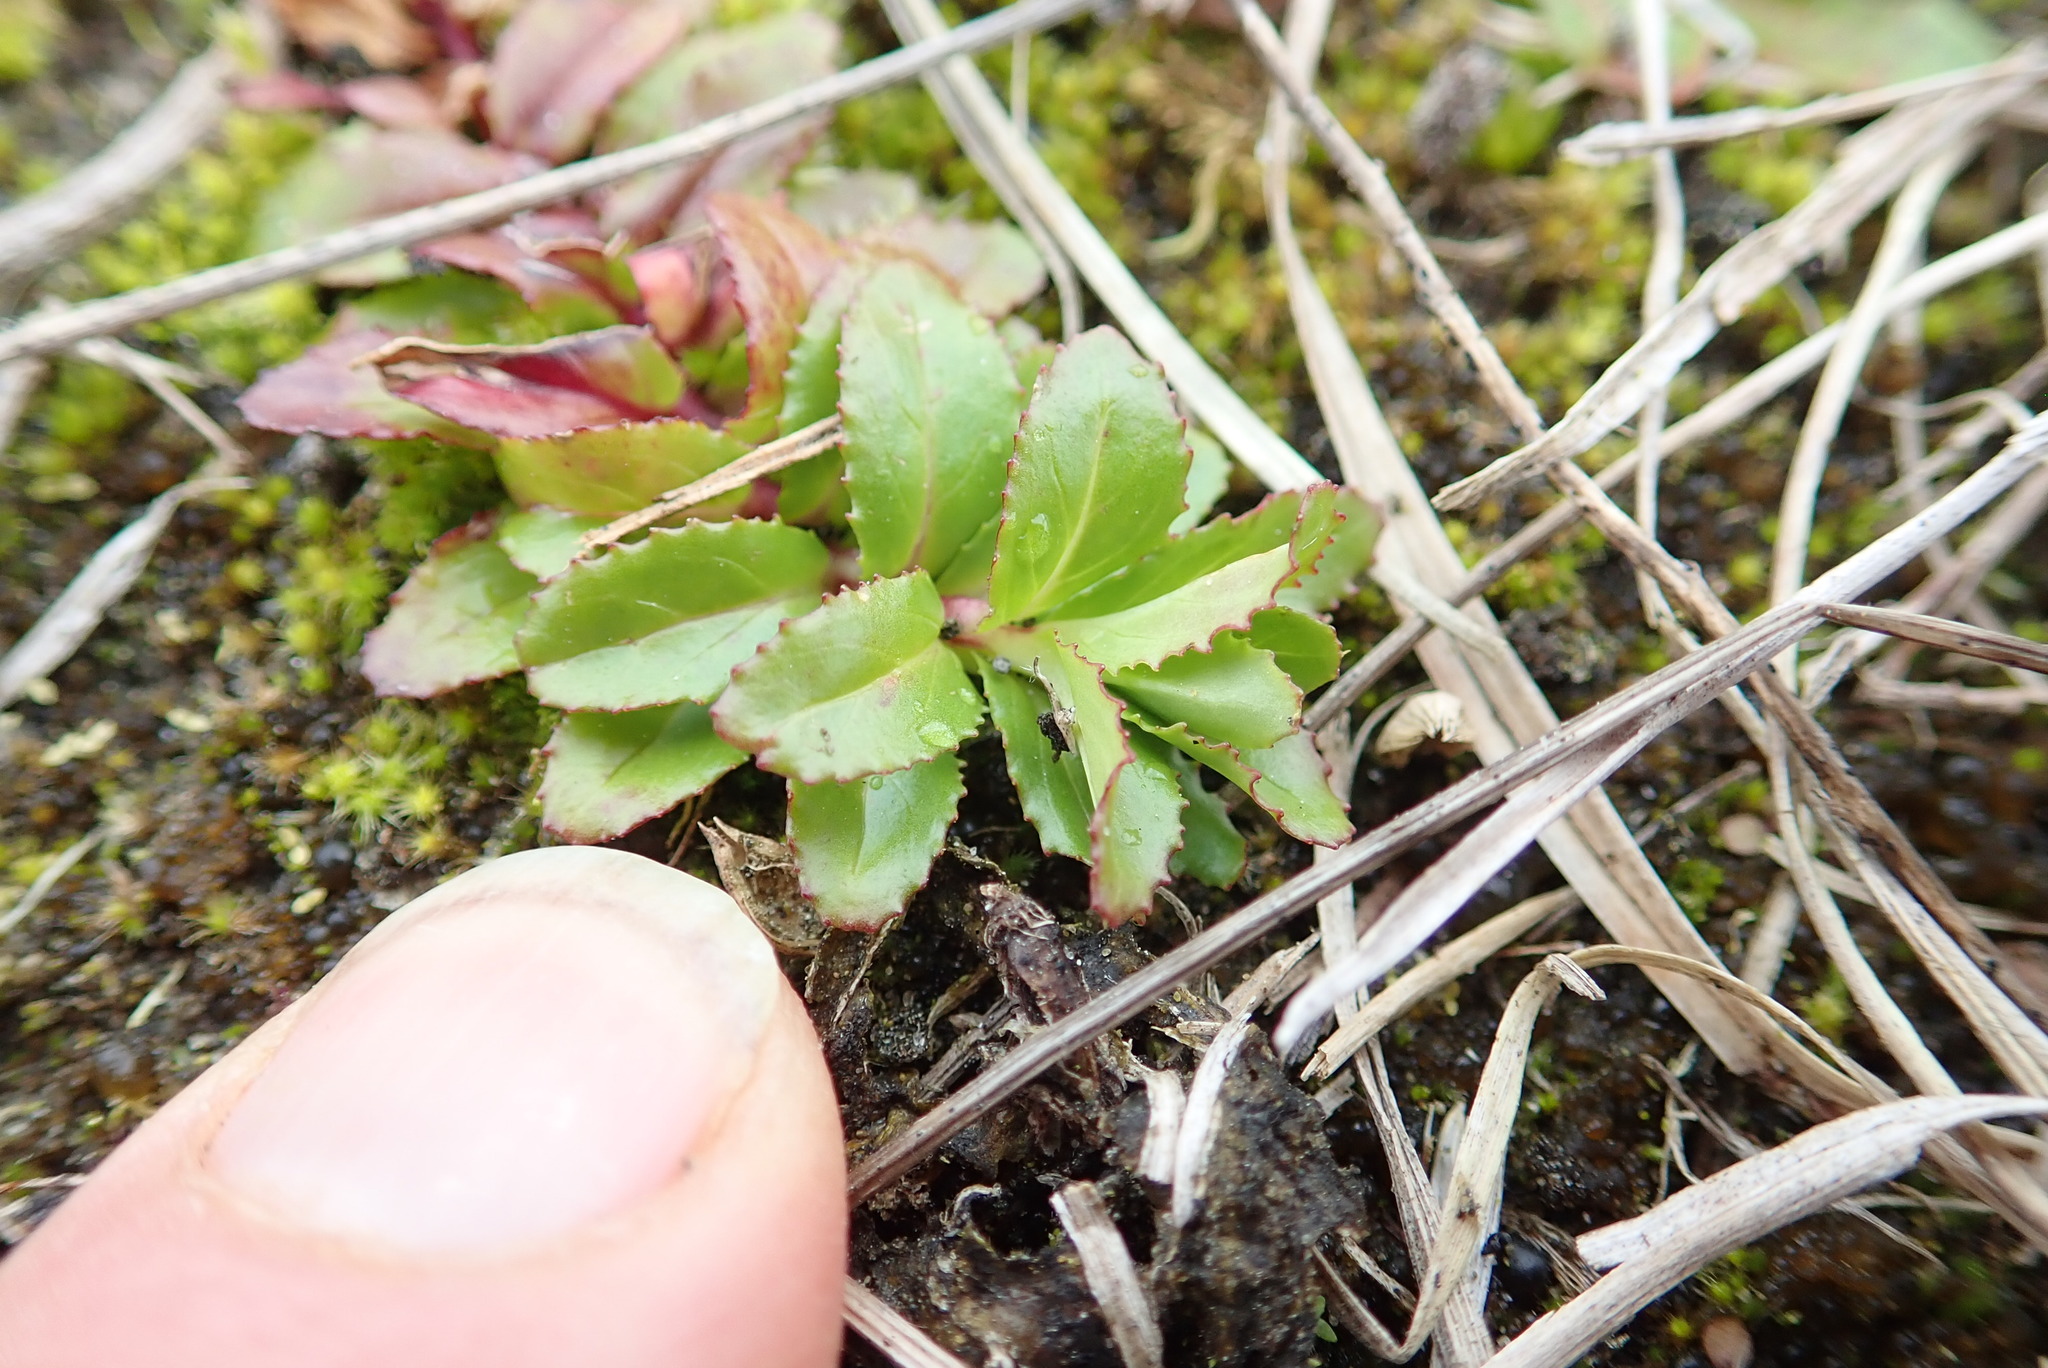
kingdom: Plantae
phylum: Tracheophyta
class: Magnoliopsida
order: Myrtales
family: Onagraceae
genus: Epilobium
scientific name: Epilobium billardiereanum
